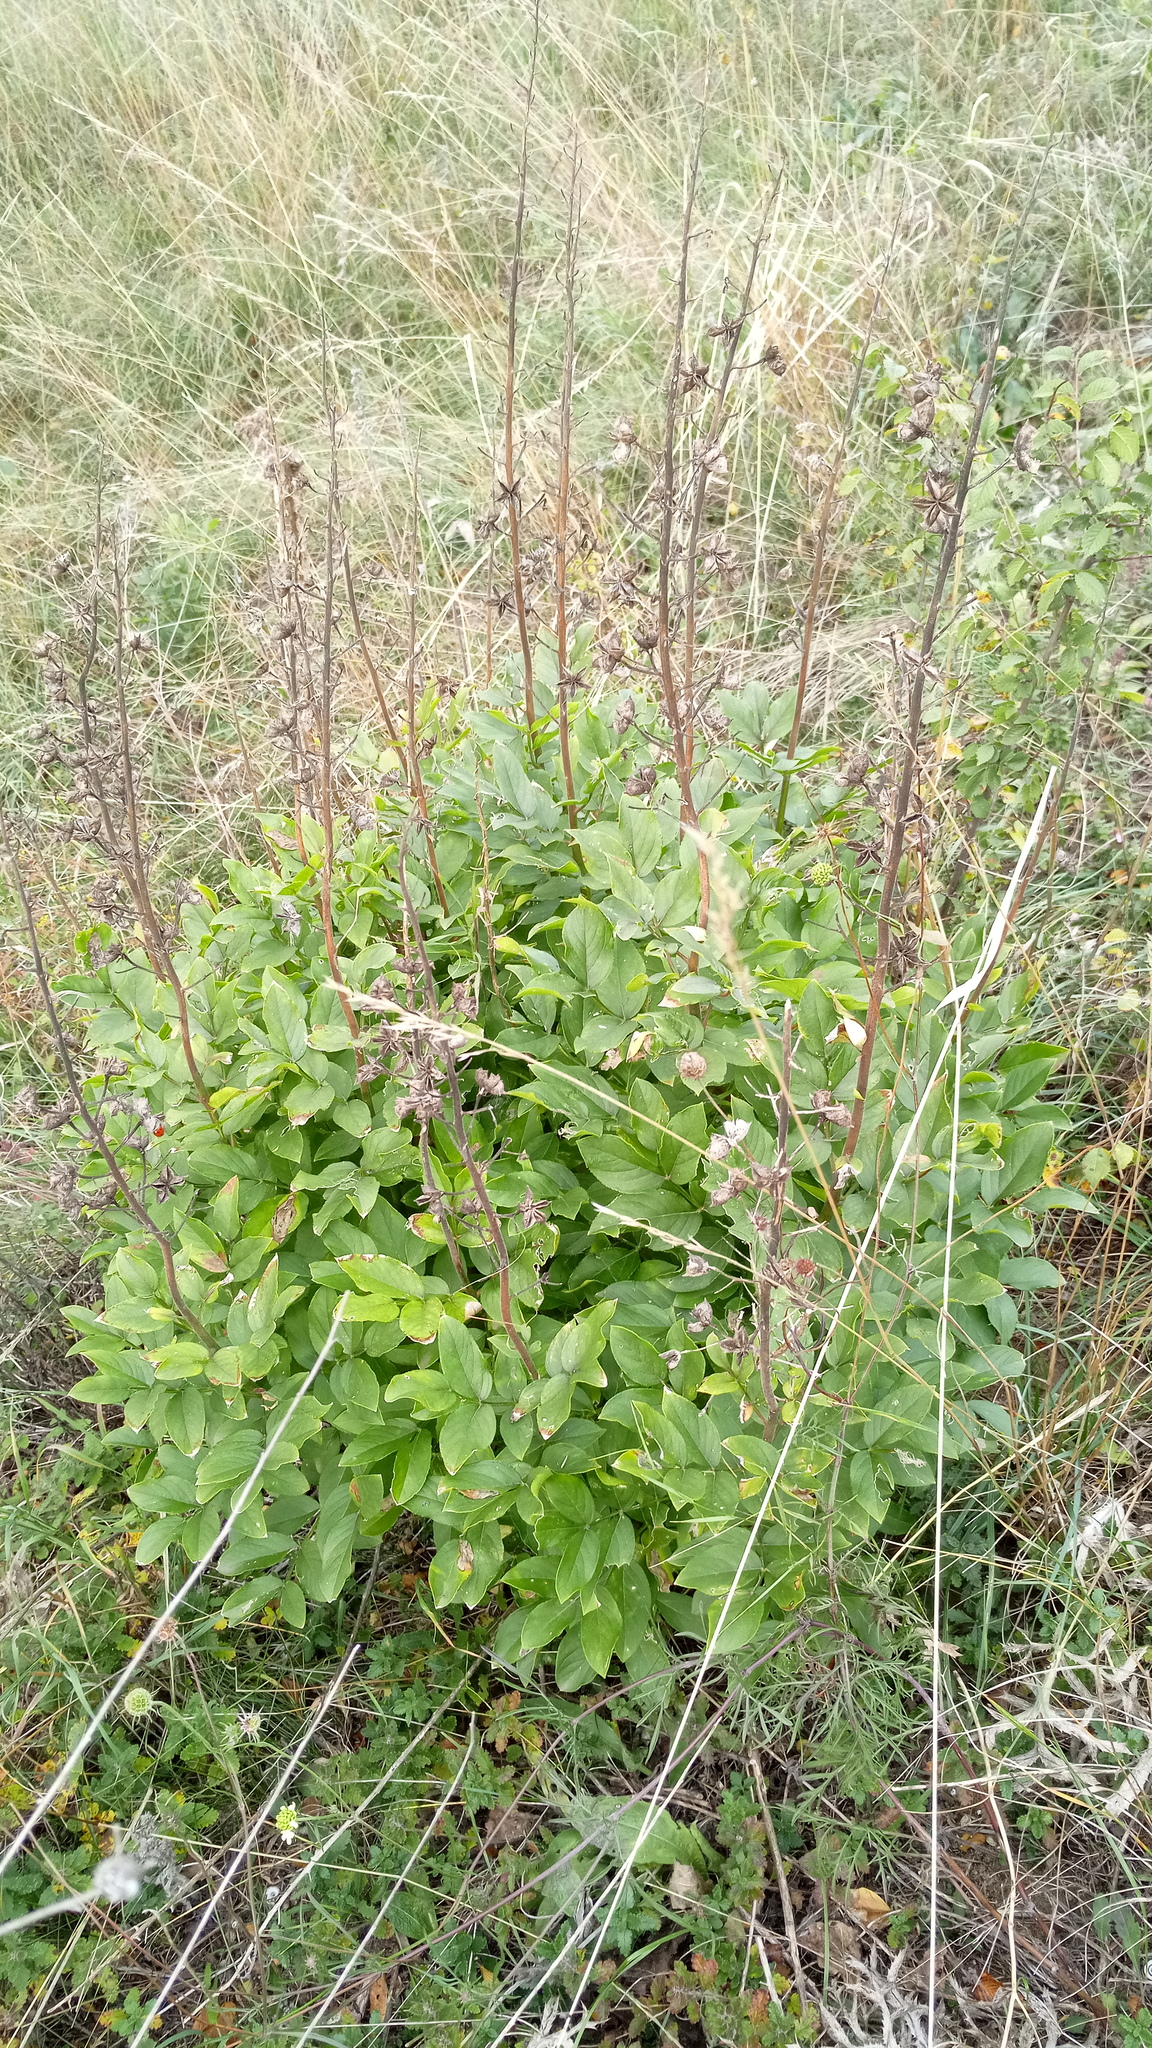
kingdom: Plantae
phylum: Tracheophyta
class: Magnoliopsida
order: Sapindales
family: Rutaceae
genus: Dictamnus
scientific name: Dictamnus albus
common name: Gasplant
